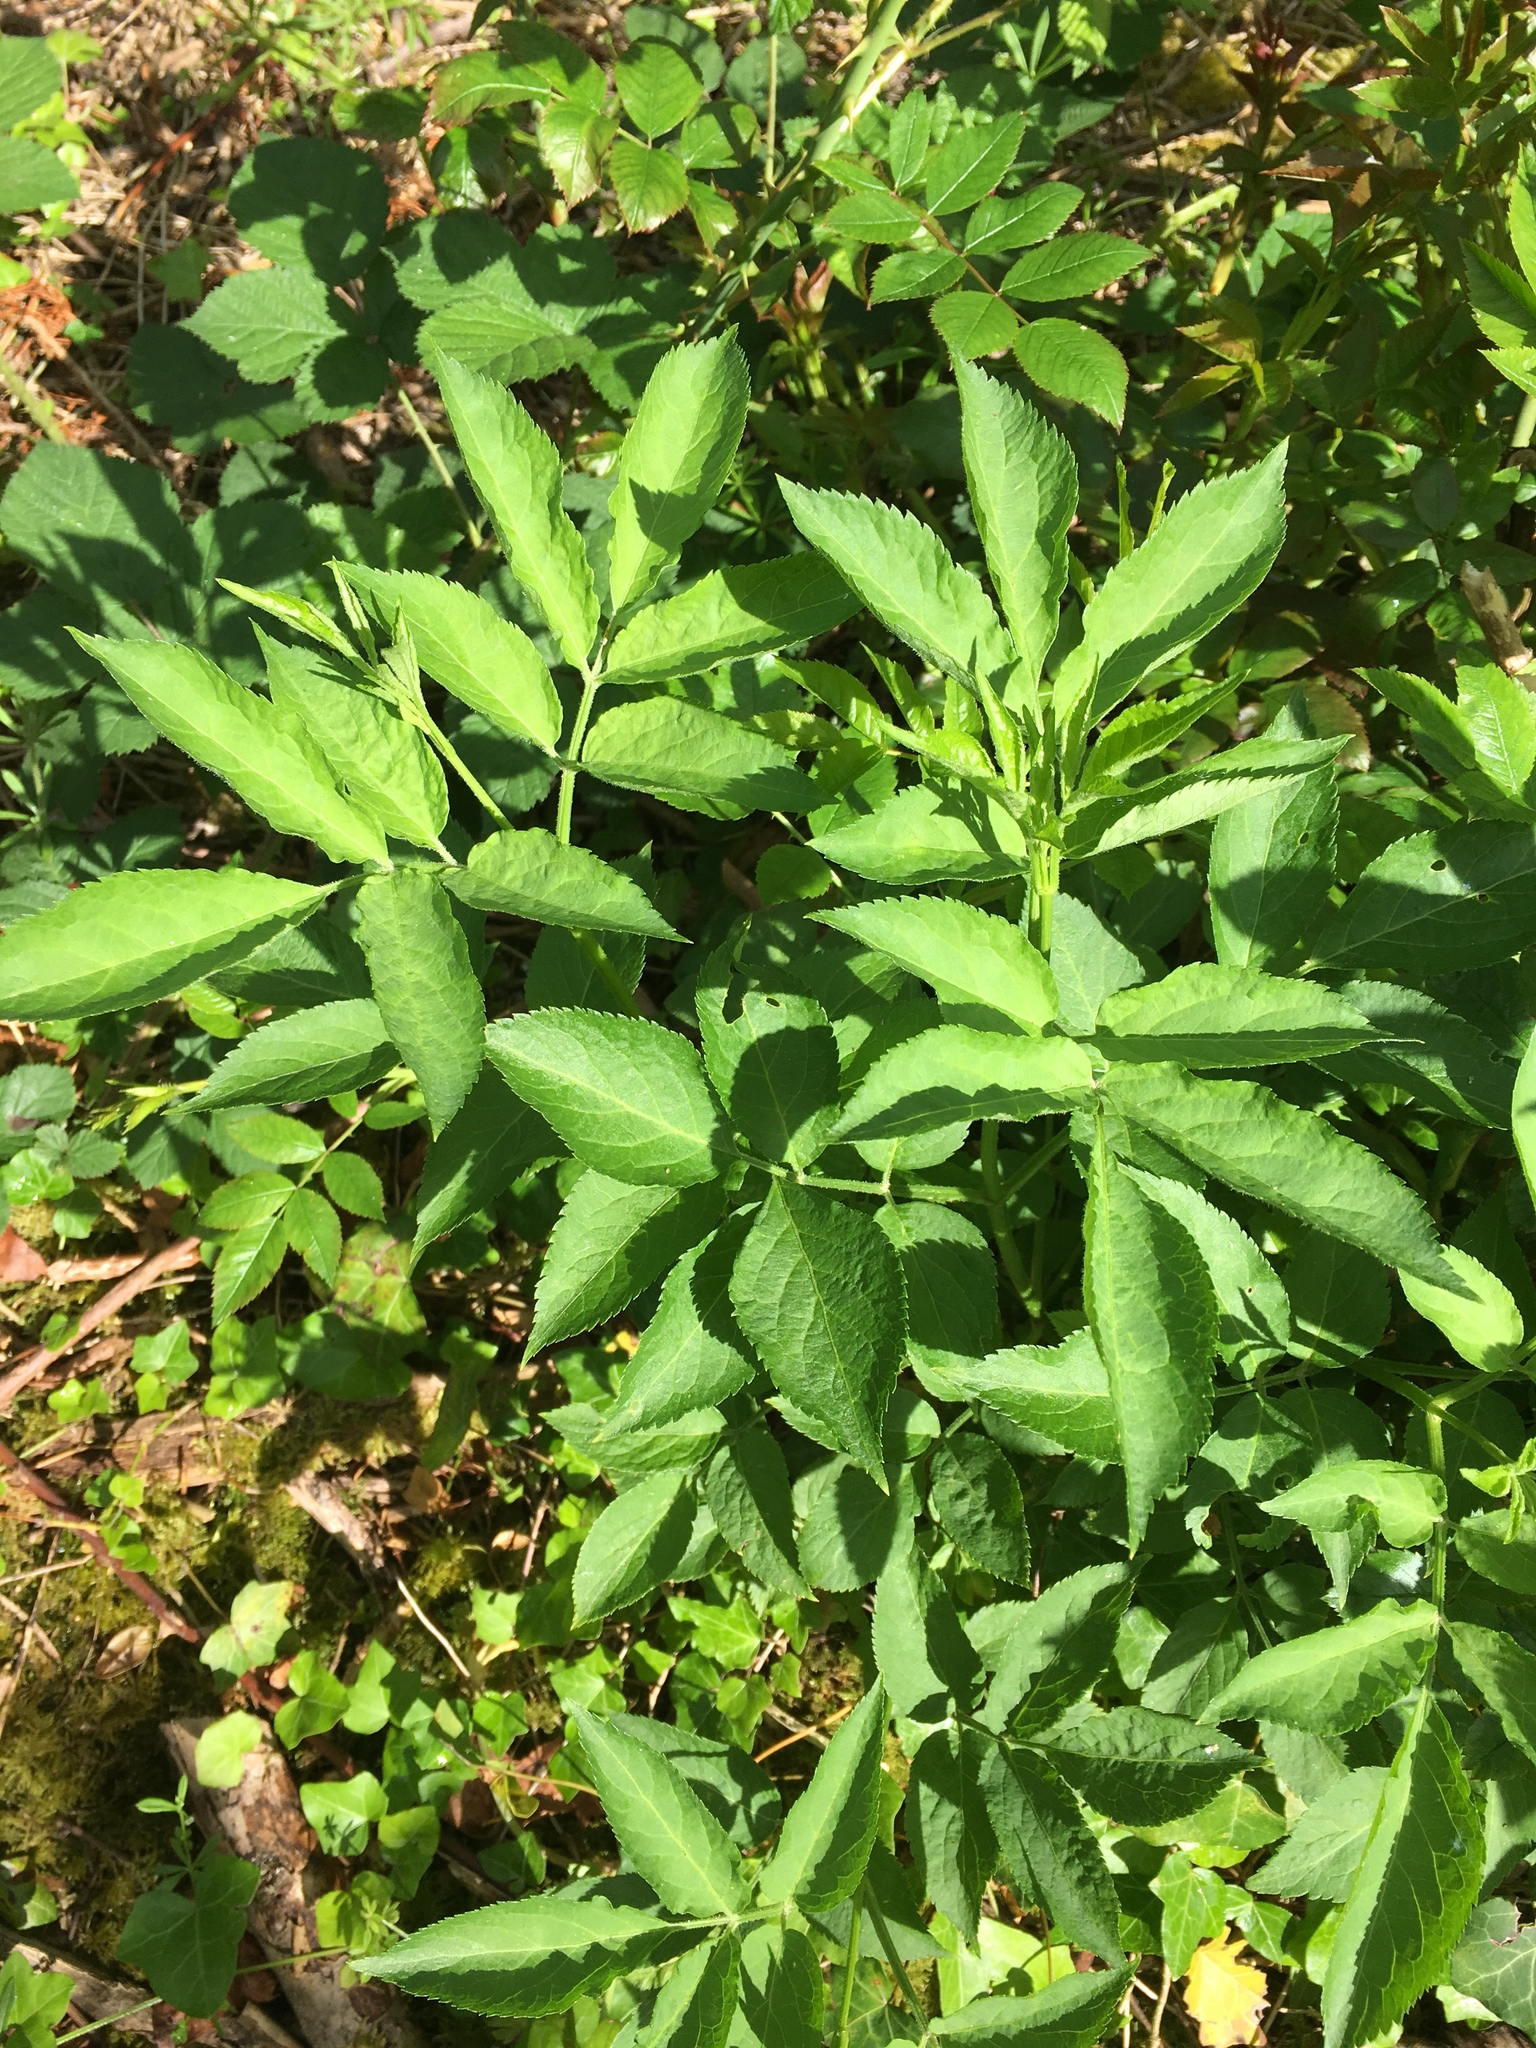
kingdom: Plantae
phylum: Tracheophyta
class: Magnoliopsida
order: Dipsacales
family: Viburnaceae
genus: Sambucus
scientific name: Sambucus nigra
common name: Elder
